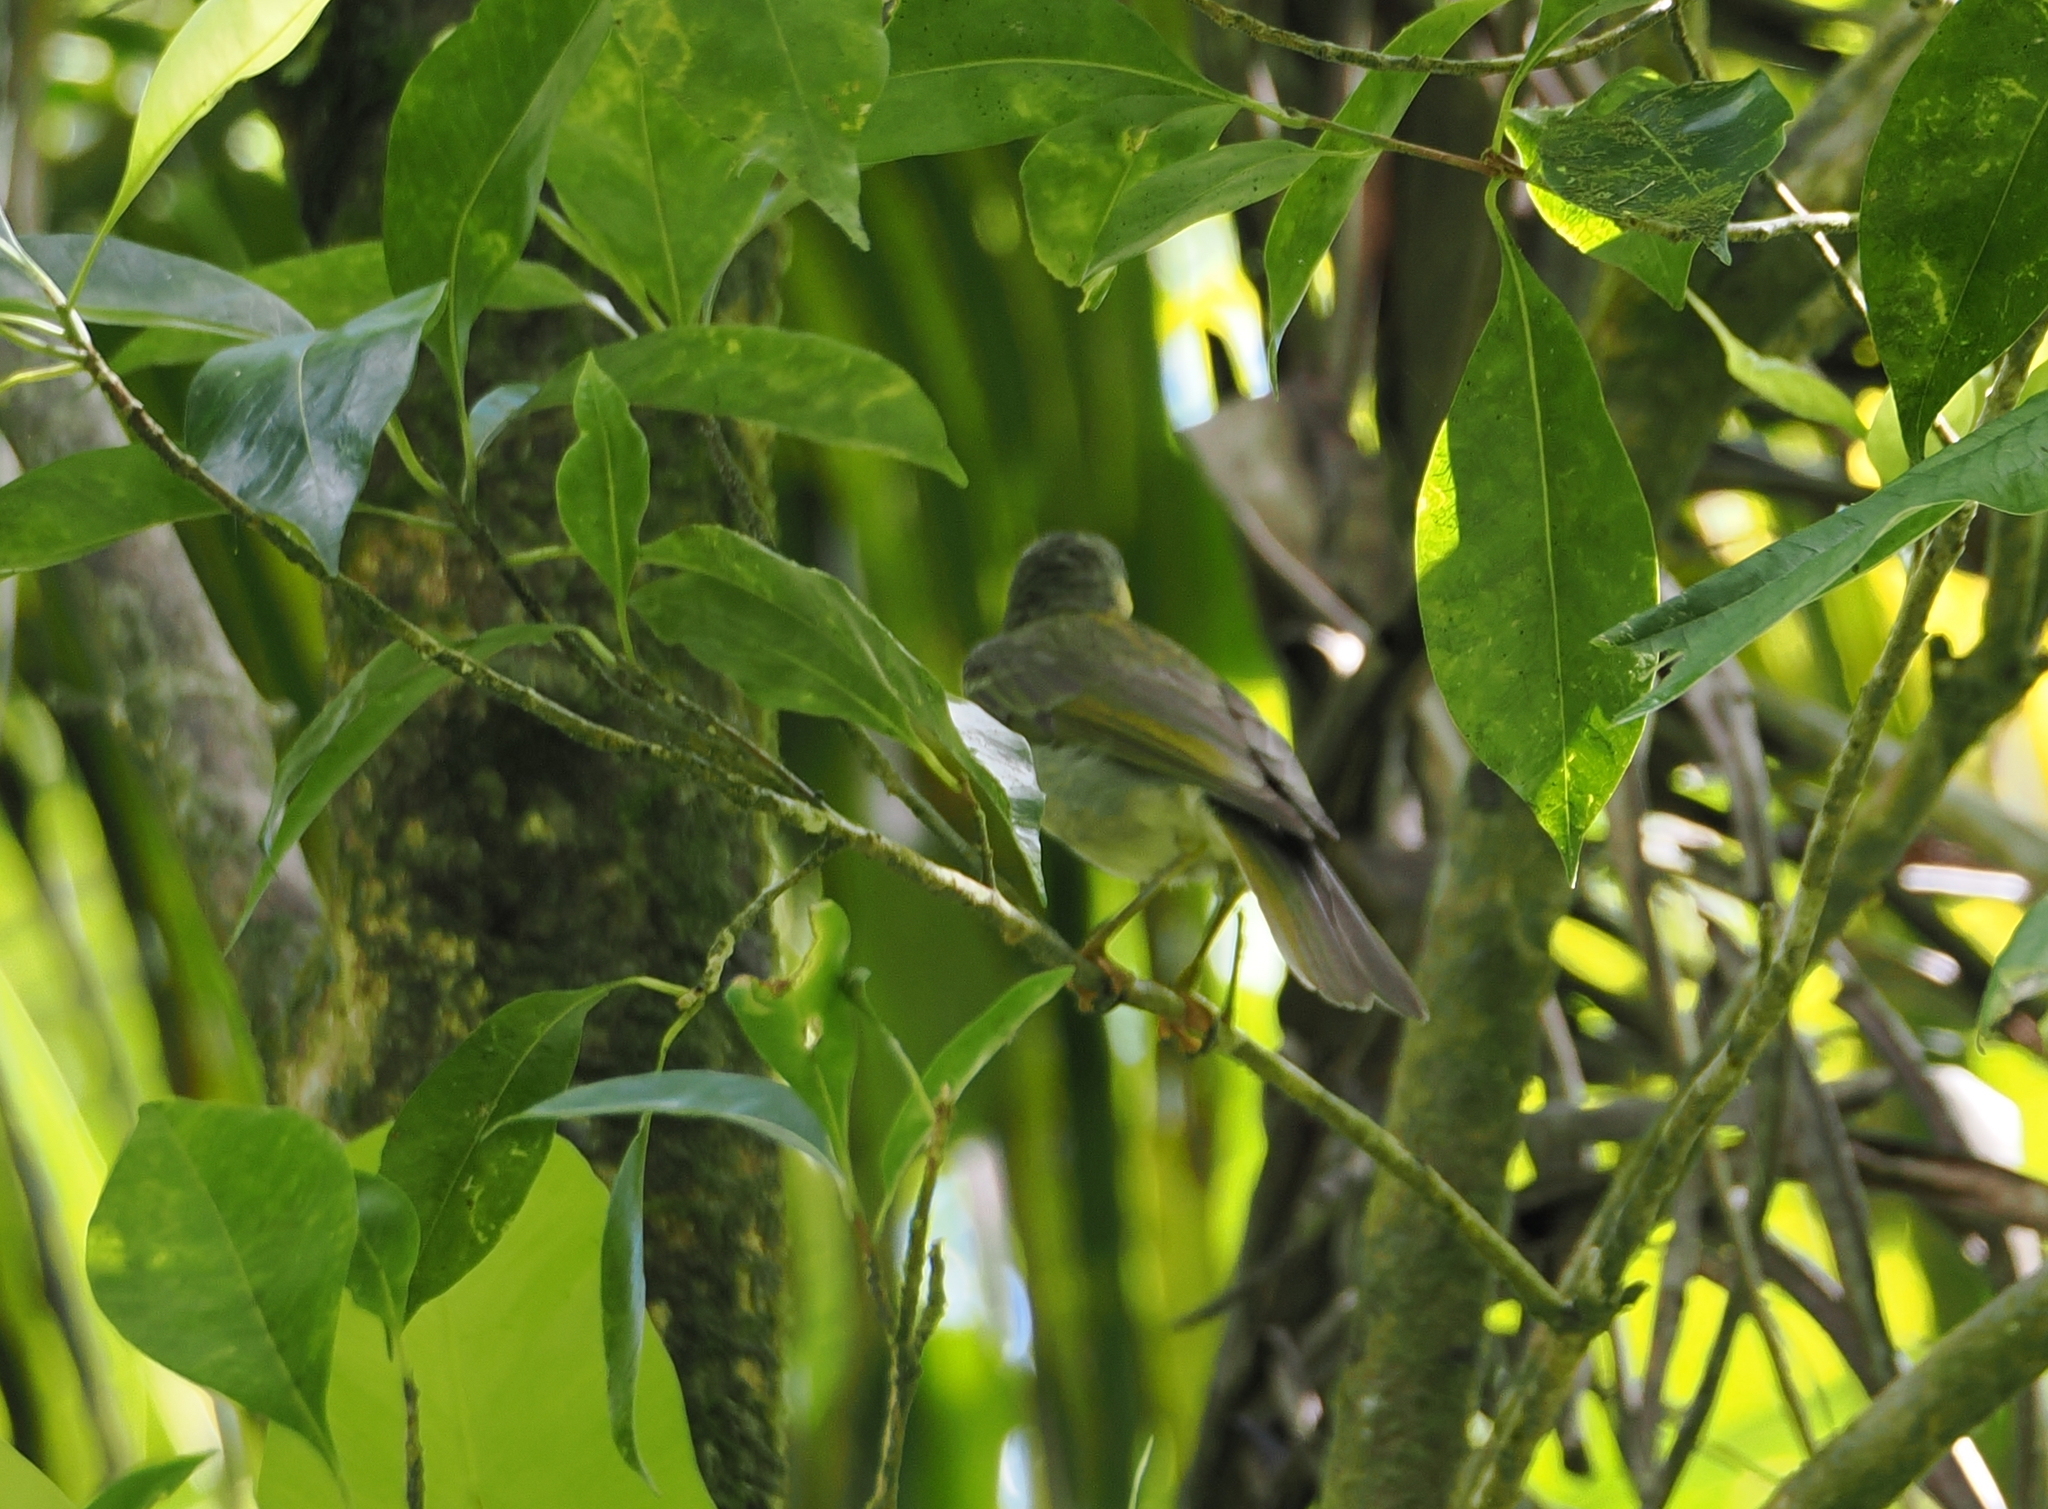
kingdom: Animalia
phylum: Chordata
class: Aves
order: Passeriformes
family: Meliphagidae
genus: Foulehaio
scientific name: Foulehaio carunculatus
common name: Eastern wattled-honeyeater
